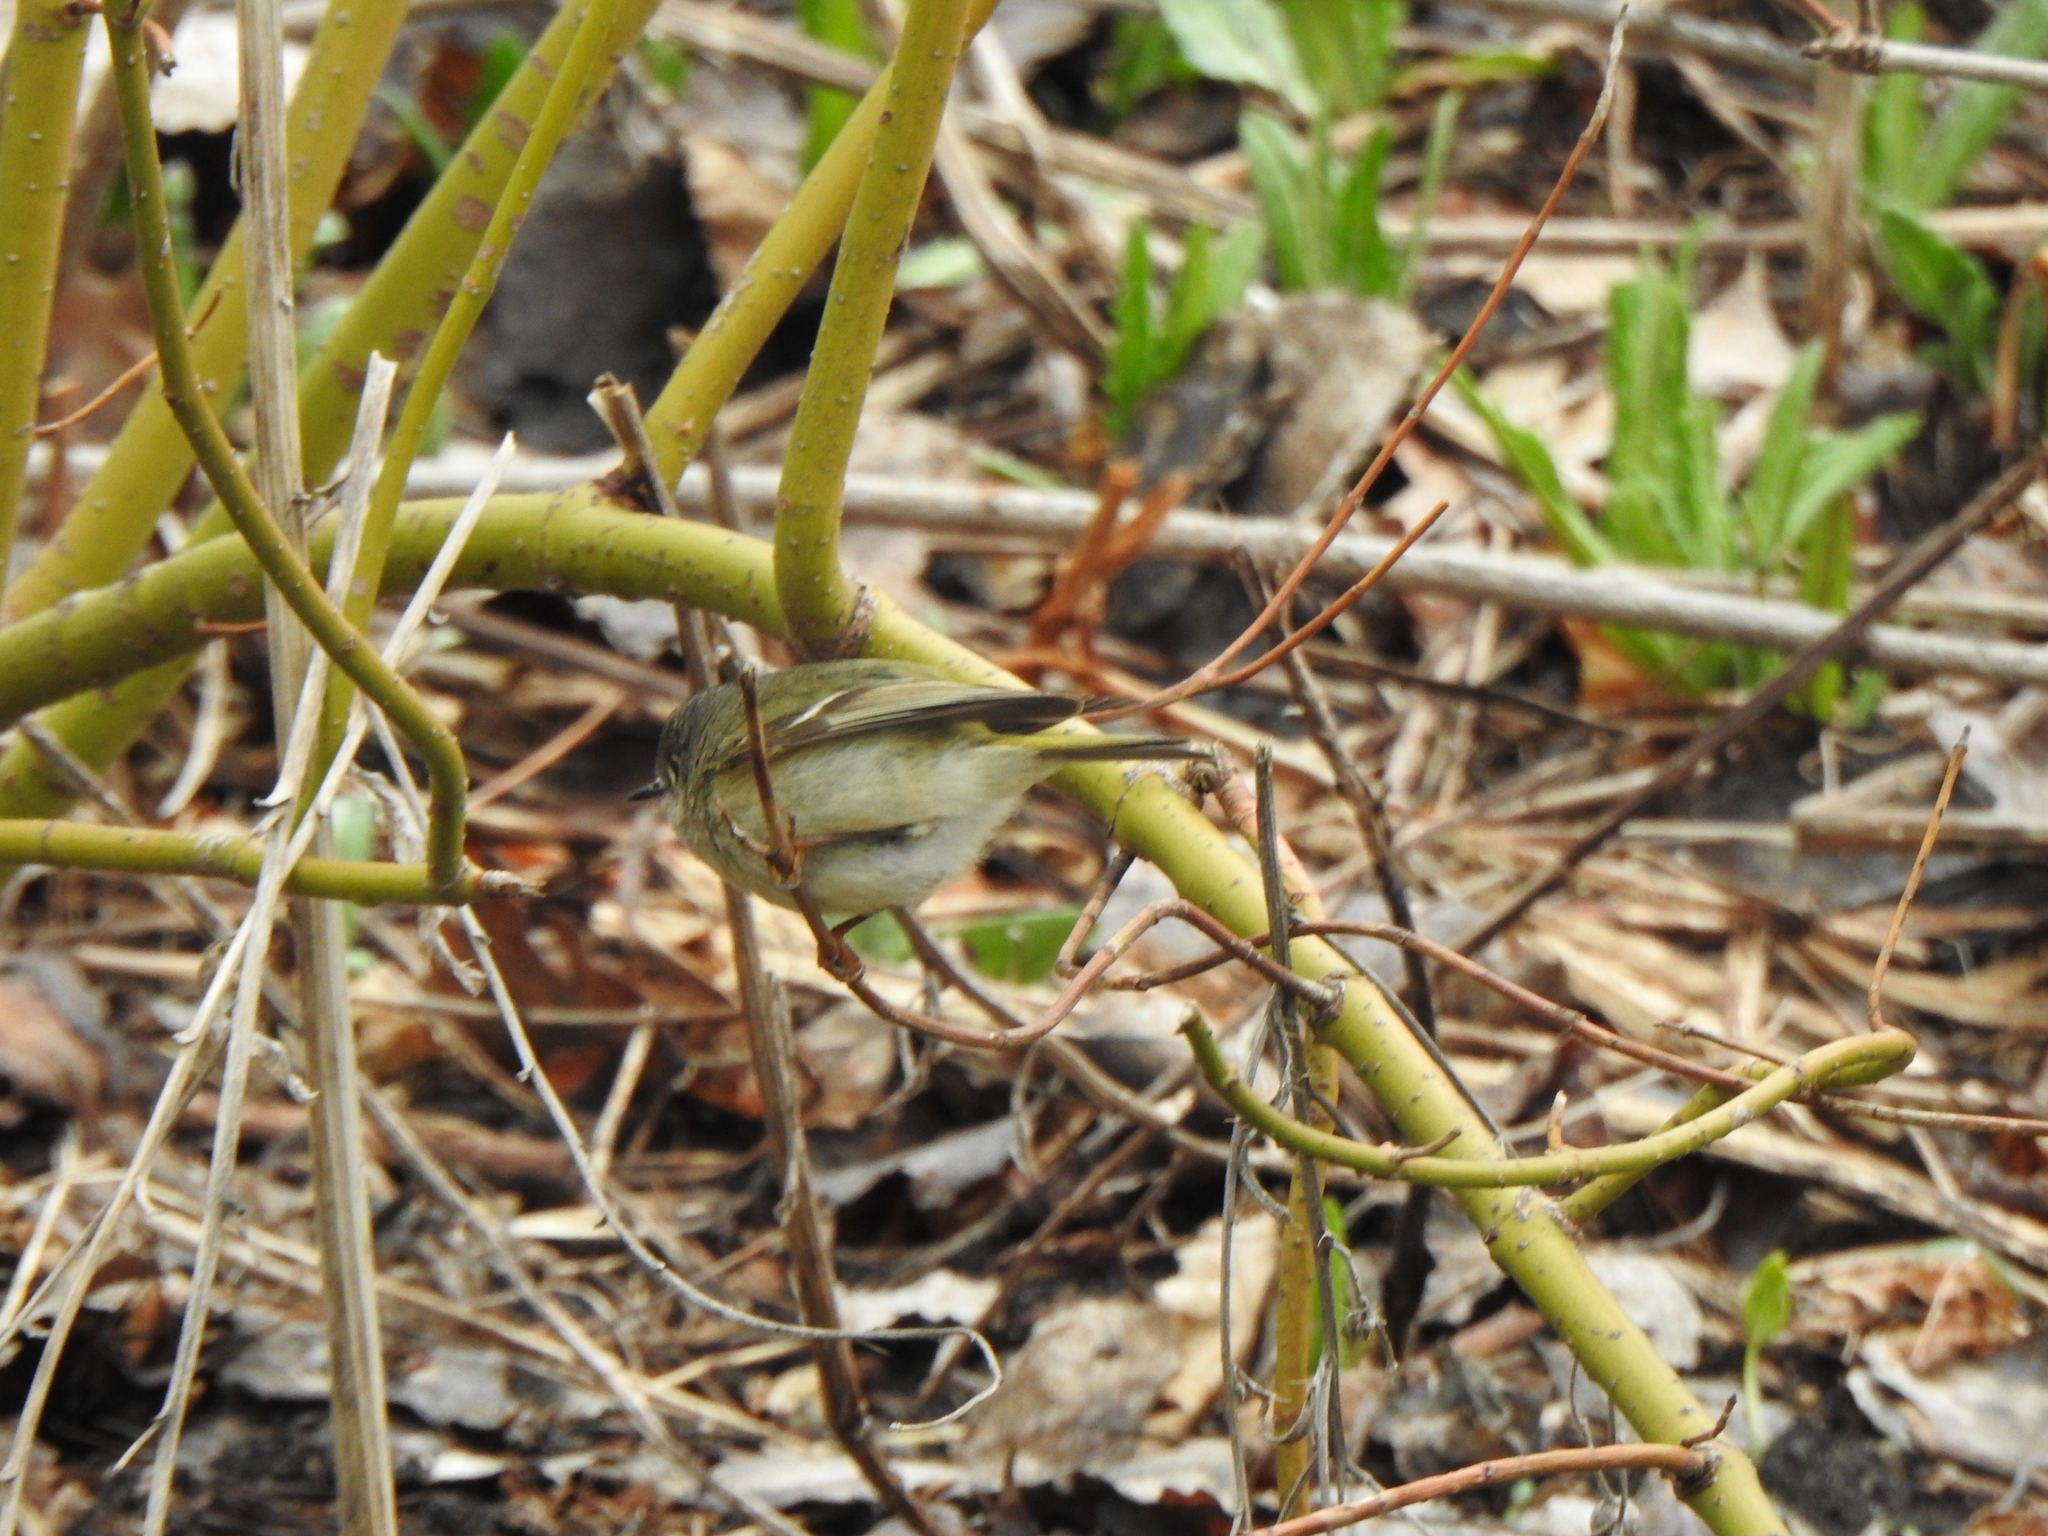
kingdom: Animalia
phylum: Chordata
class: Aves
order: Passeriformes
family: Regulidae
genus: Regulus
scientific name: Regulus calendula
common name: Ruby-crowned kinglet
